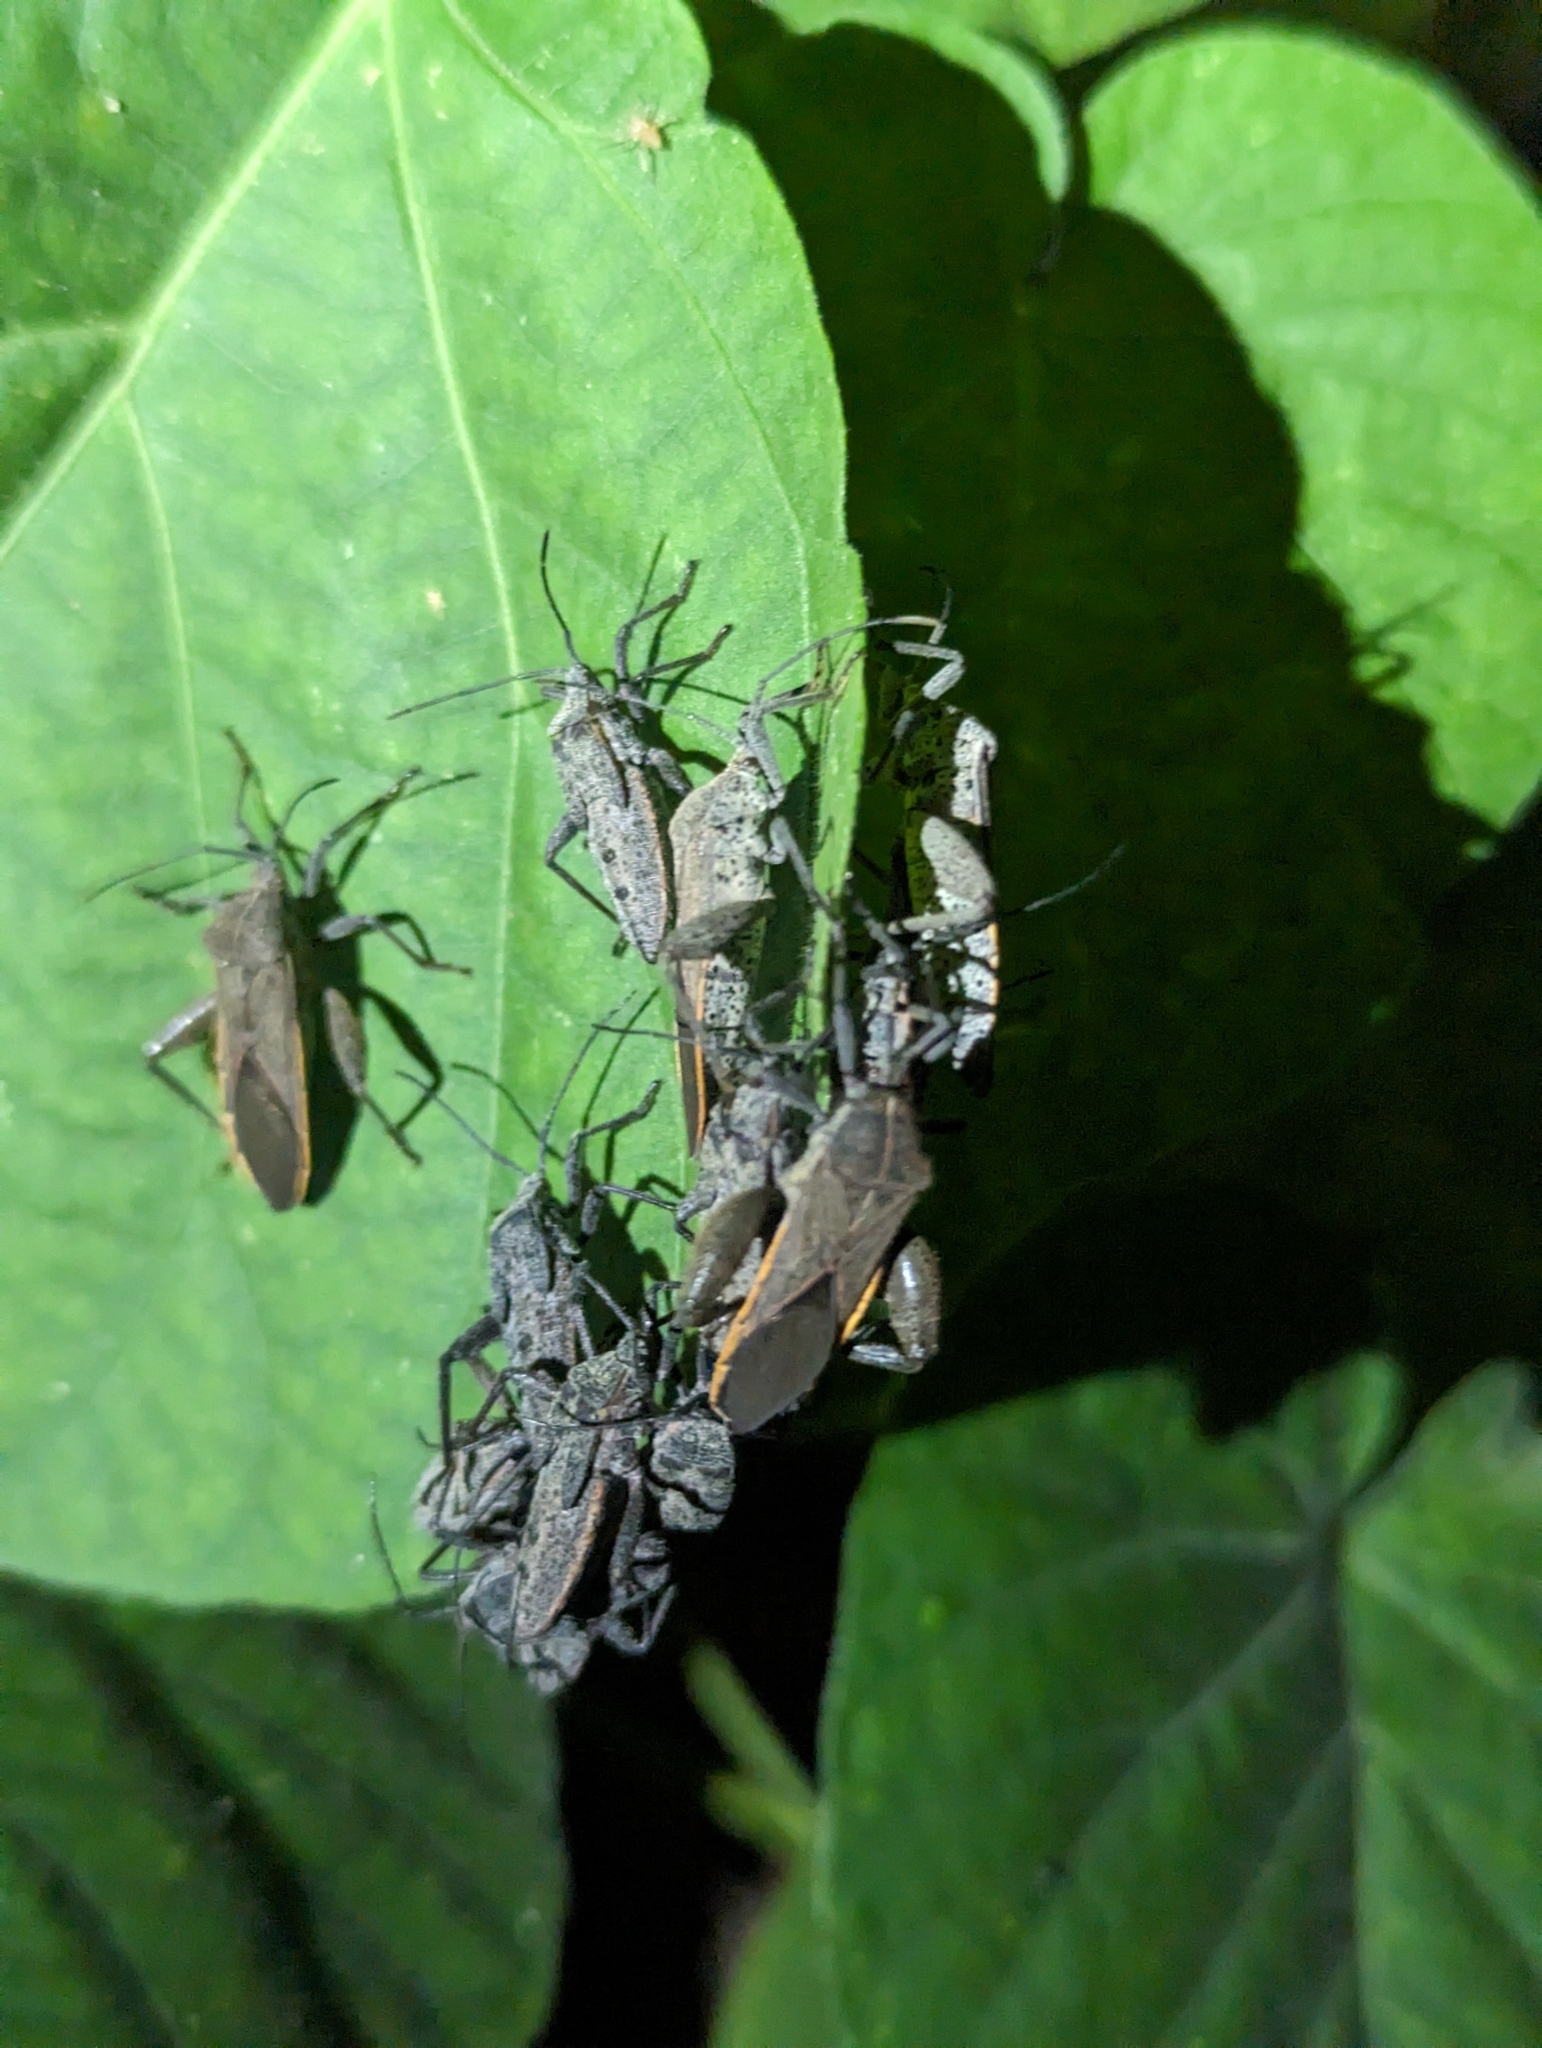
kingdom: Animalia
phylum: Arthropoda
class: Insecta
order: Hemiptera
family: Coreidae
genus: Physomerus
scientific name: Physomerus grossipes
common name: Squash bug
